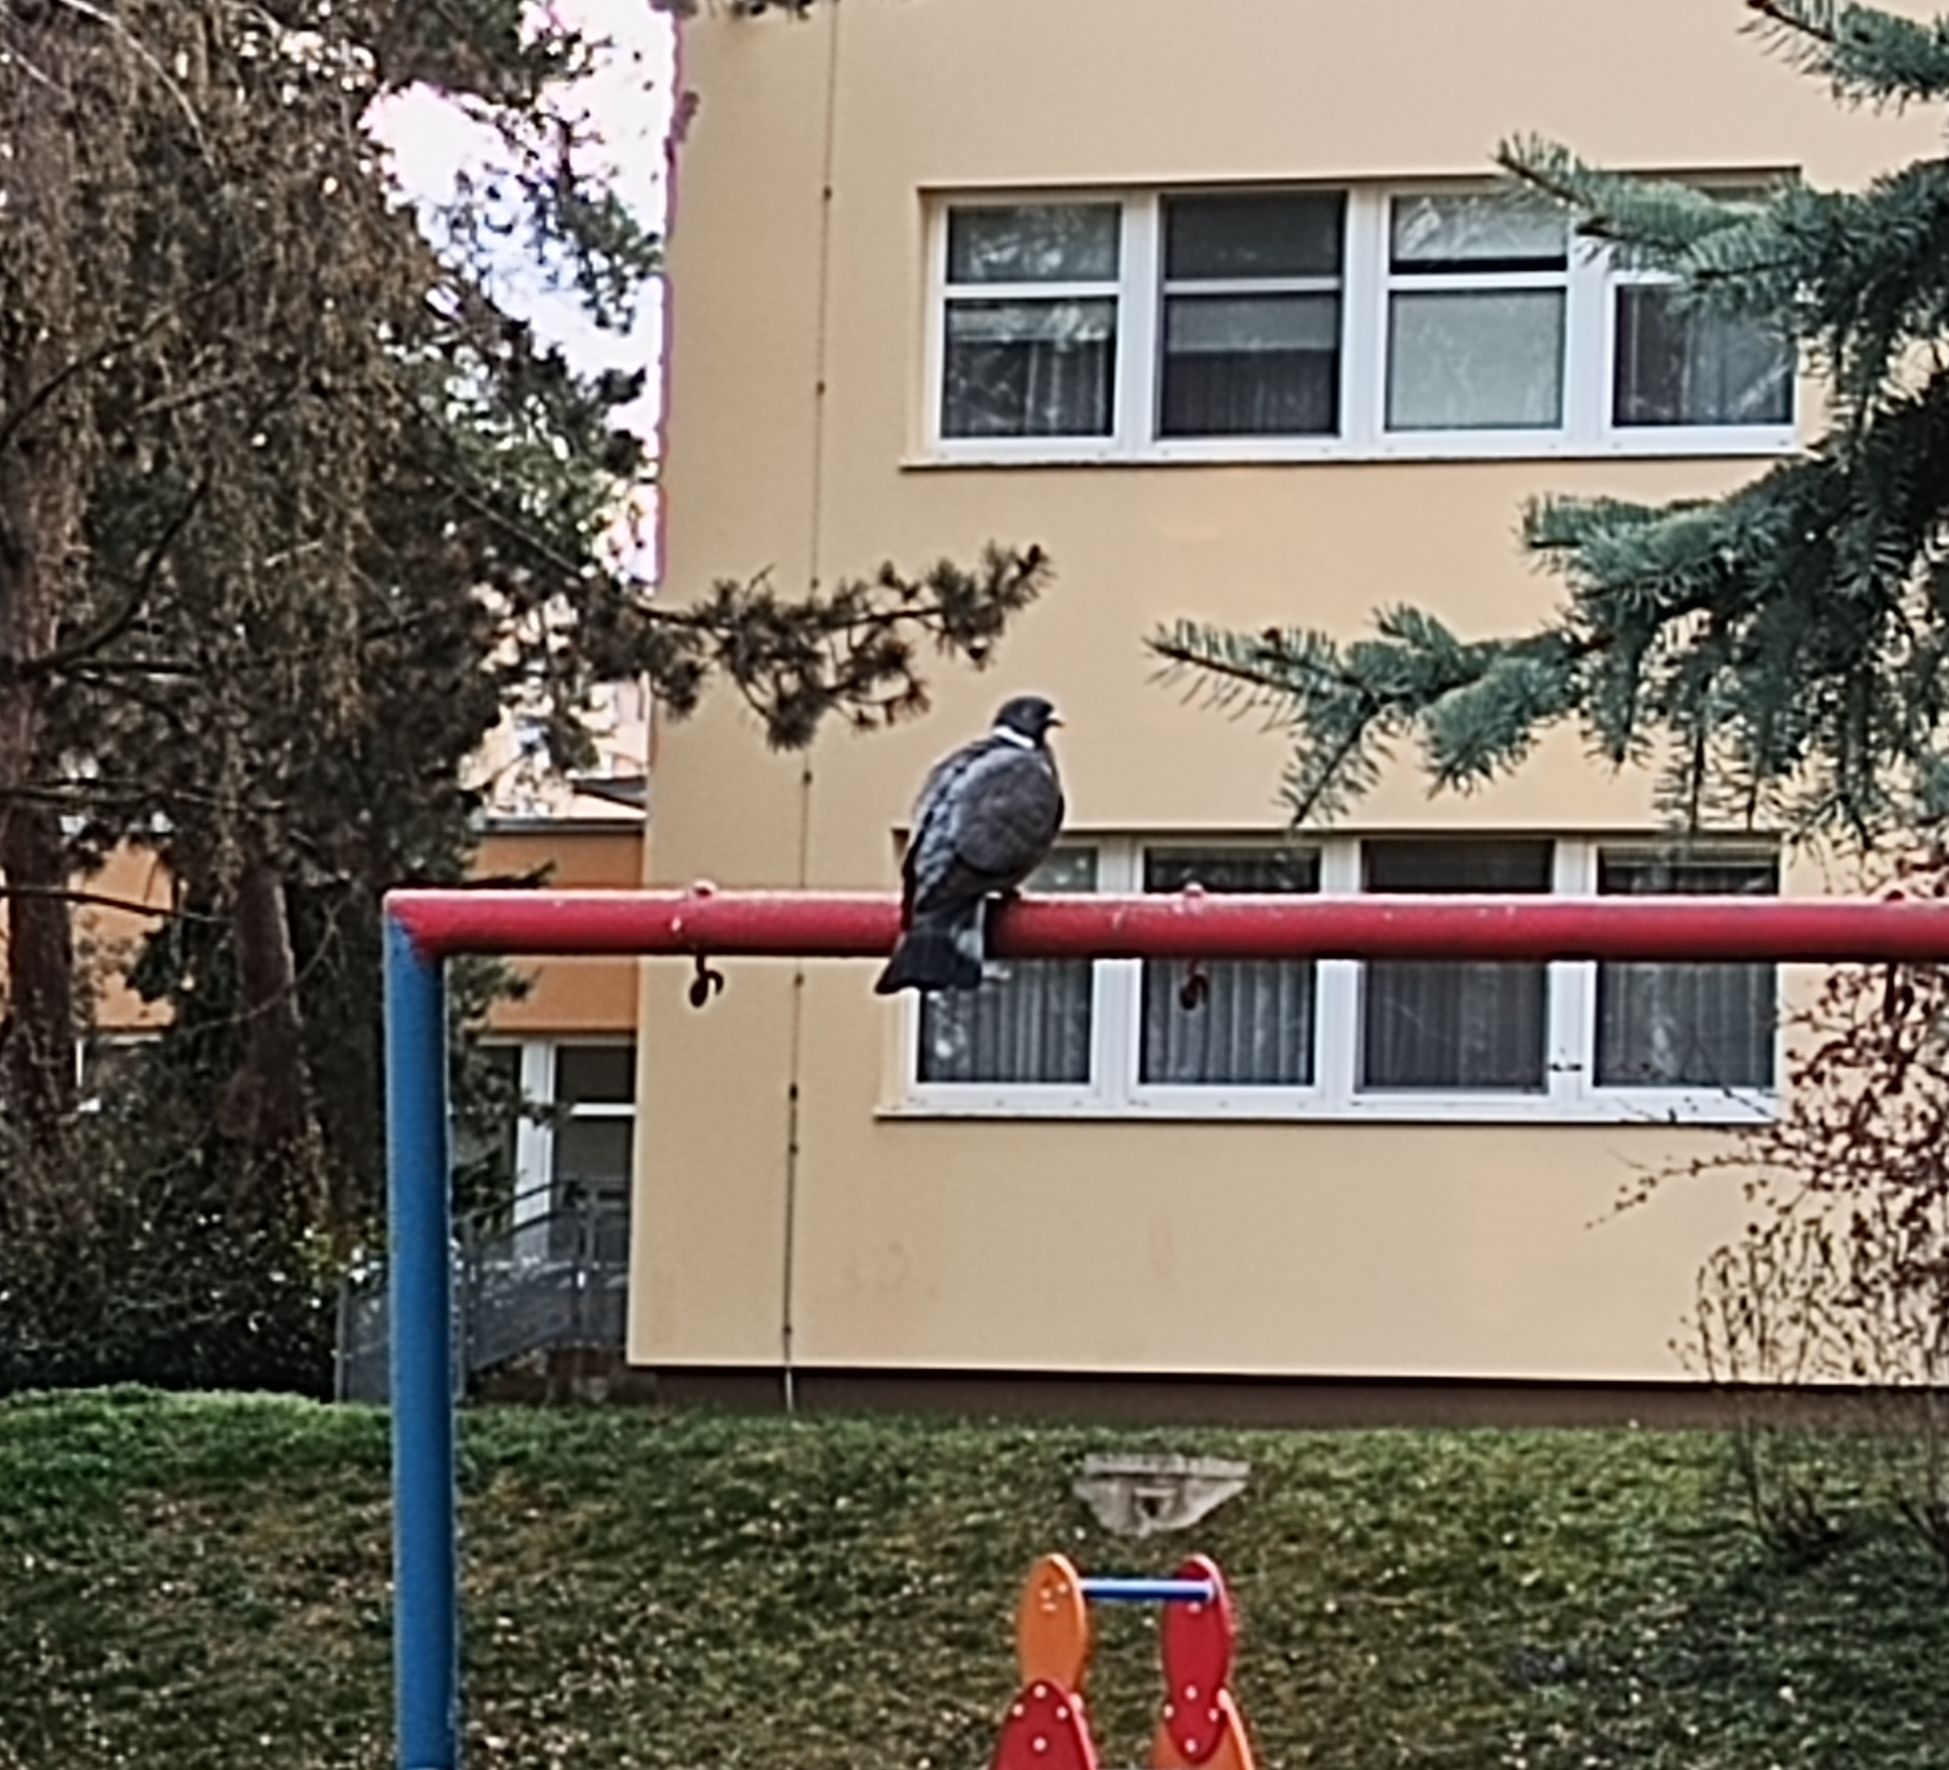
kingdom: Animalia
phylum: Chordata
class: Aves
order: Columbiformes
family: Columbidae
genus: Columba
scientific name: Columba palumbus
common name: Common wood pigeon
